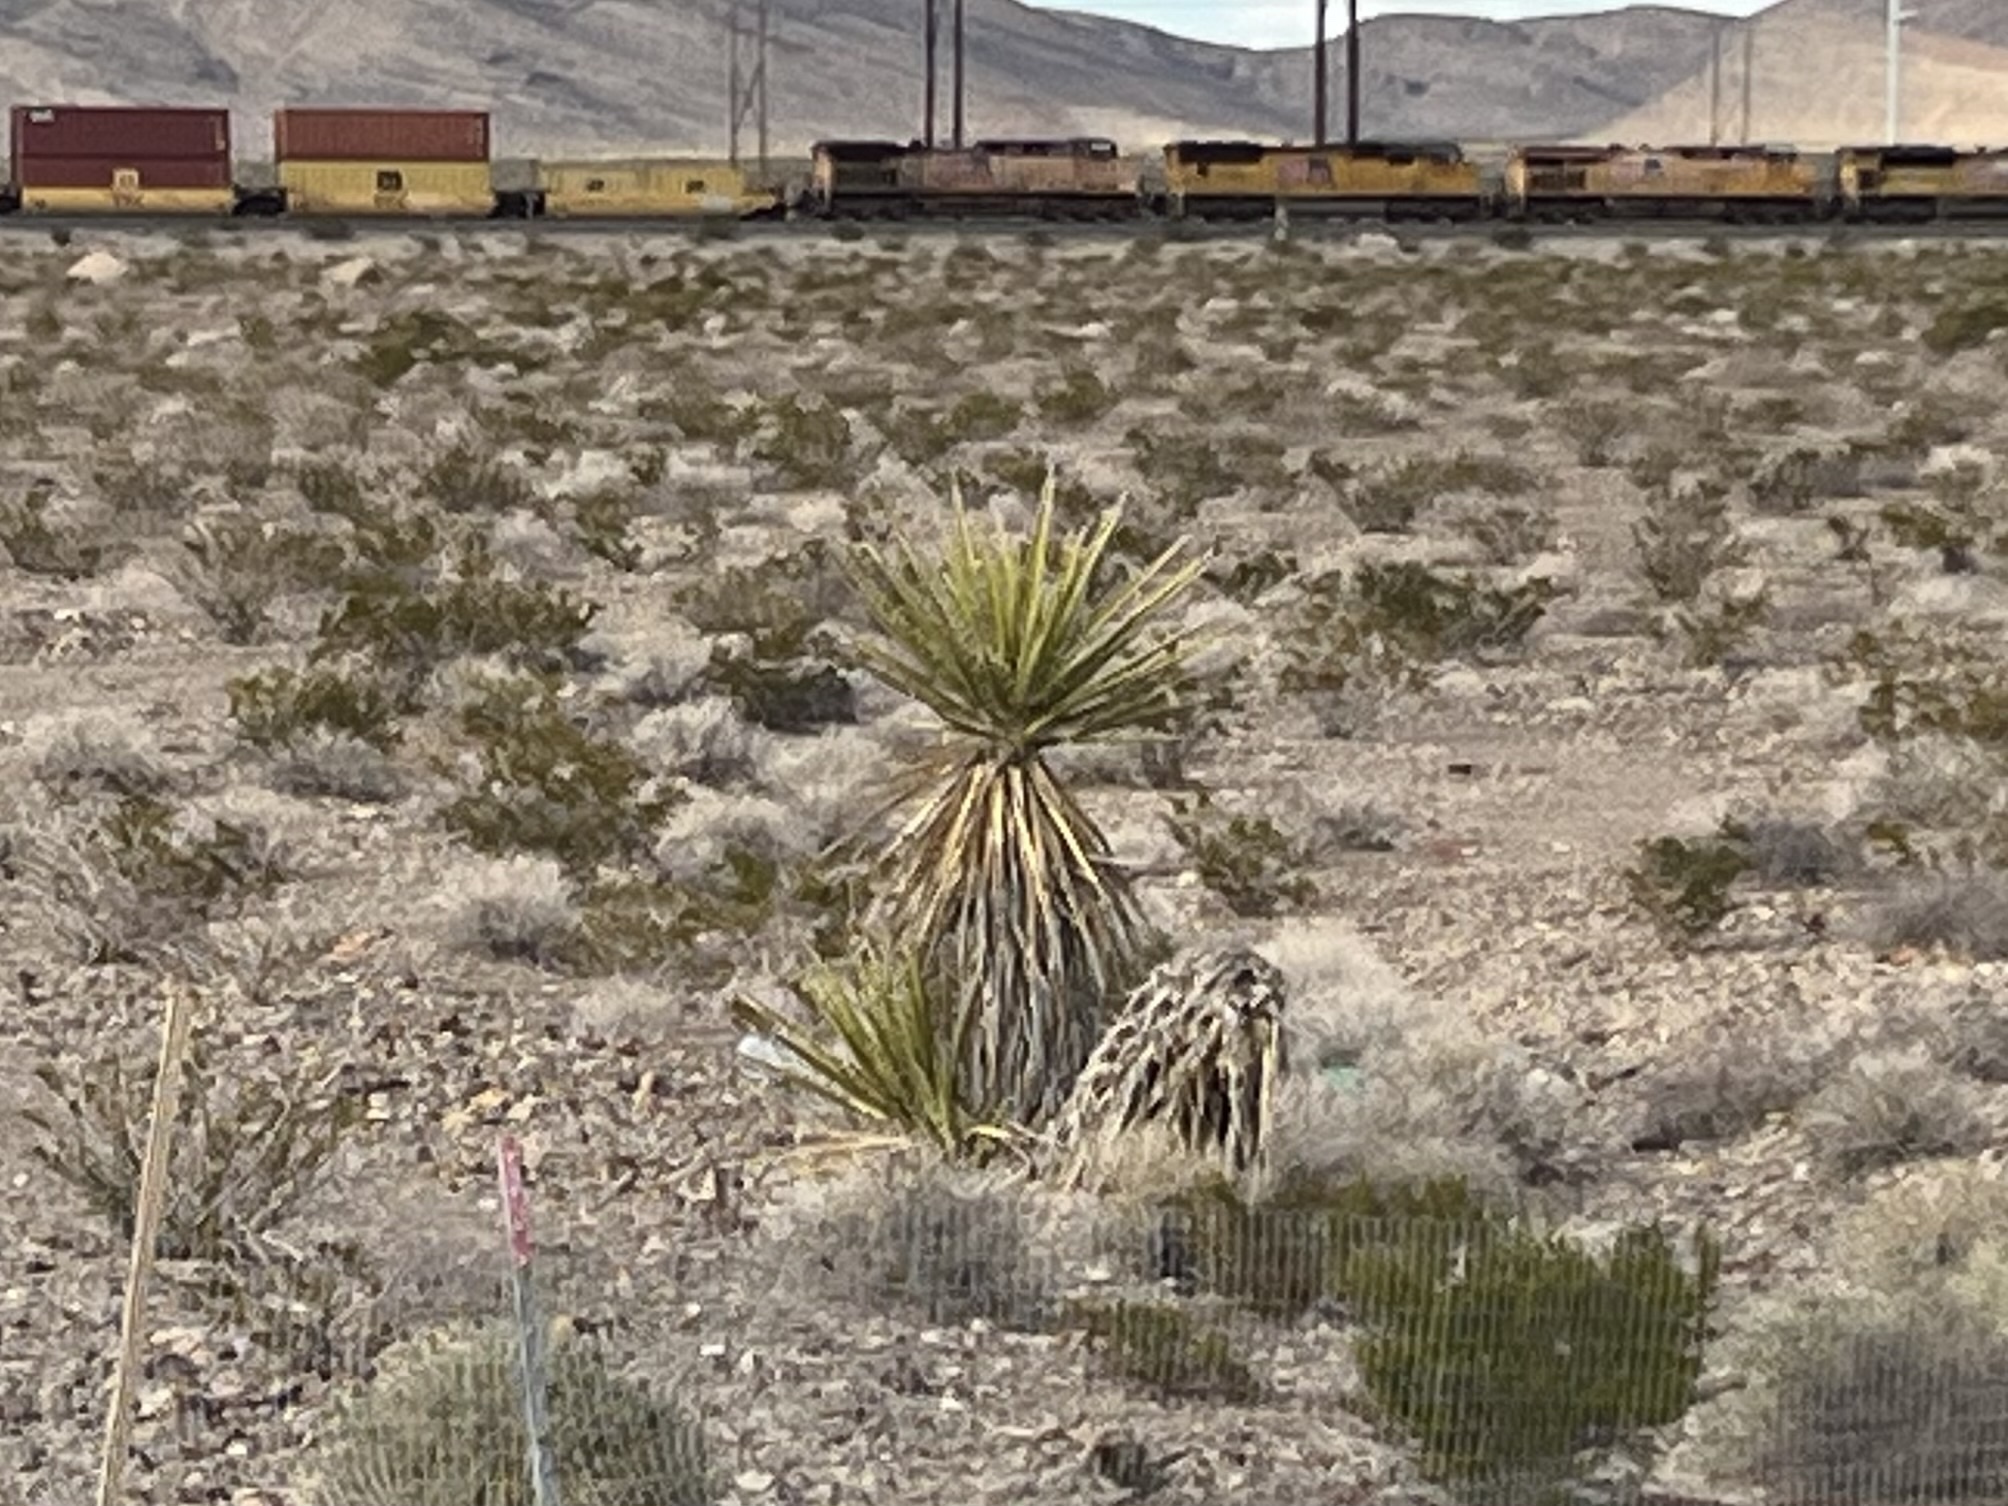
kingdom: Plantae
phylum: Tracheophyta
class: Liliopsida
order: Asparagales
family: Asparagaceae
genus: Yucca
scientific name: Yucca schidigera
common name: Mojave yucca
